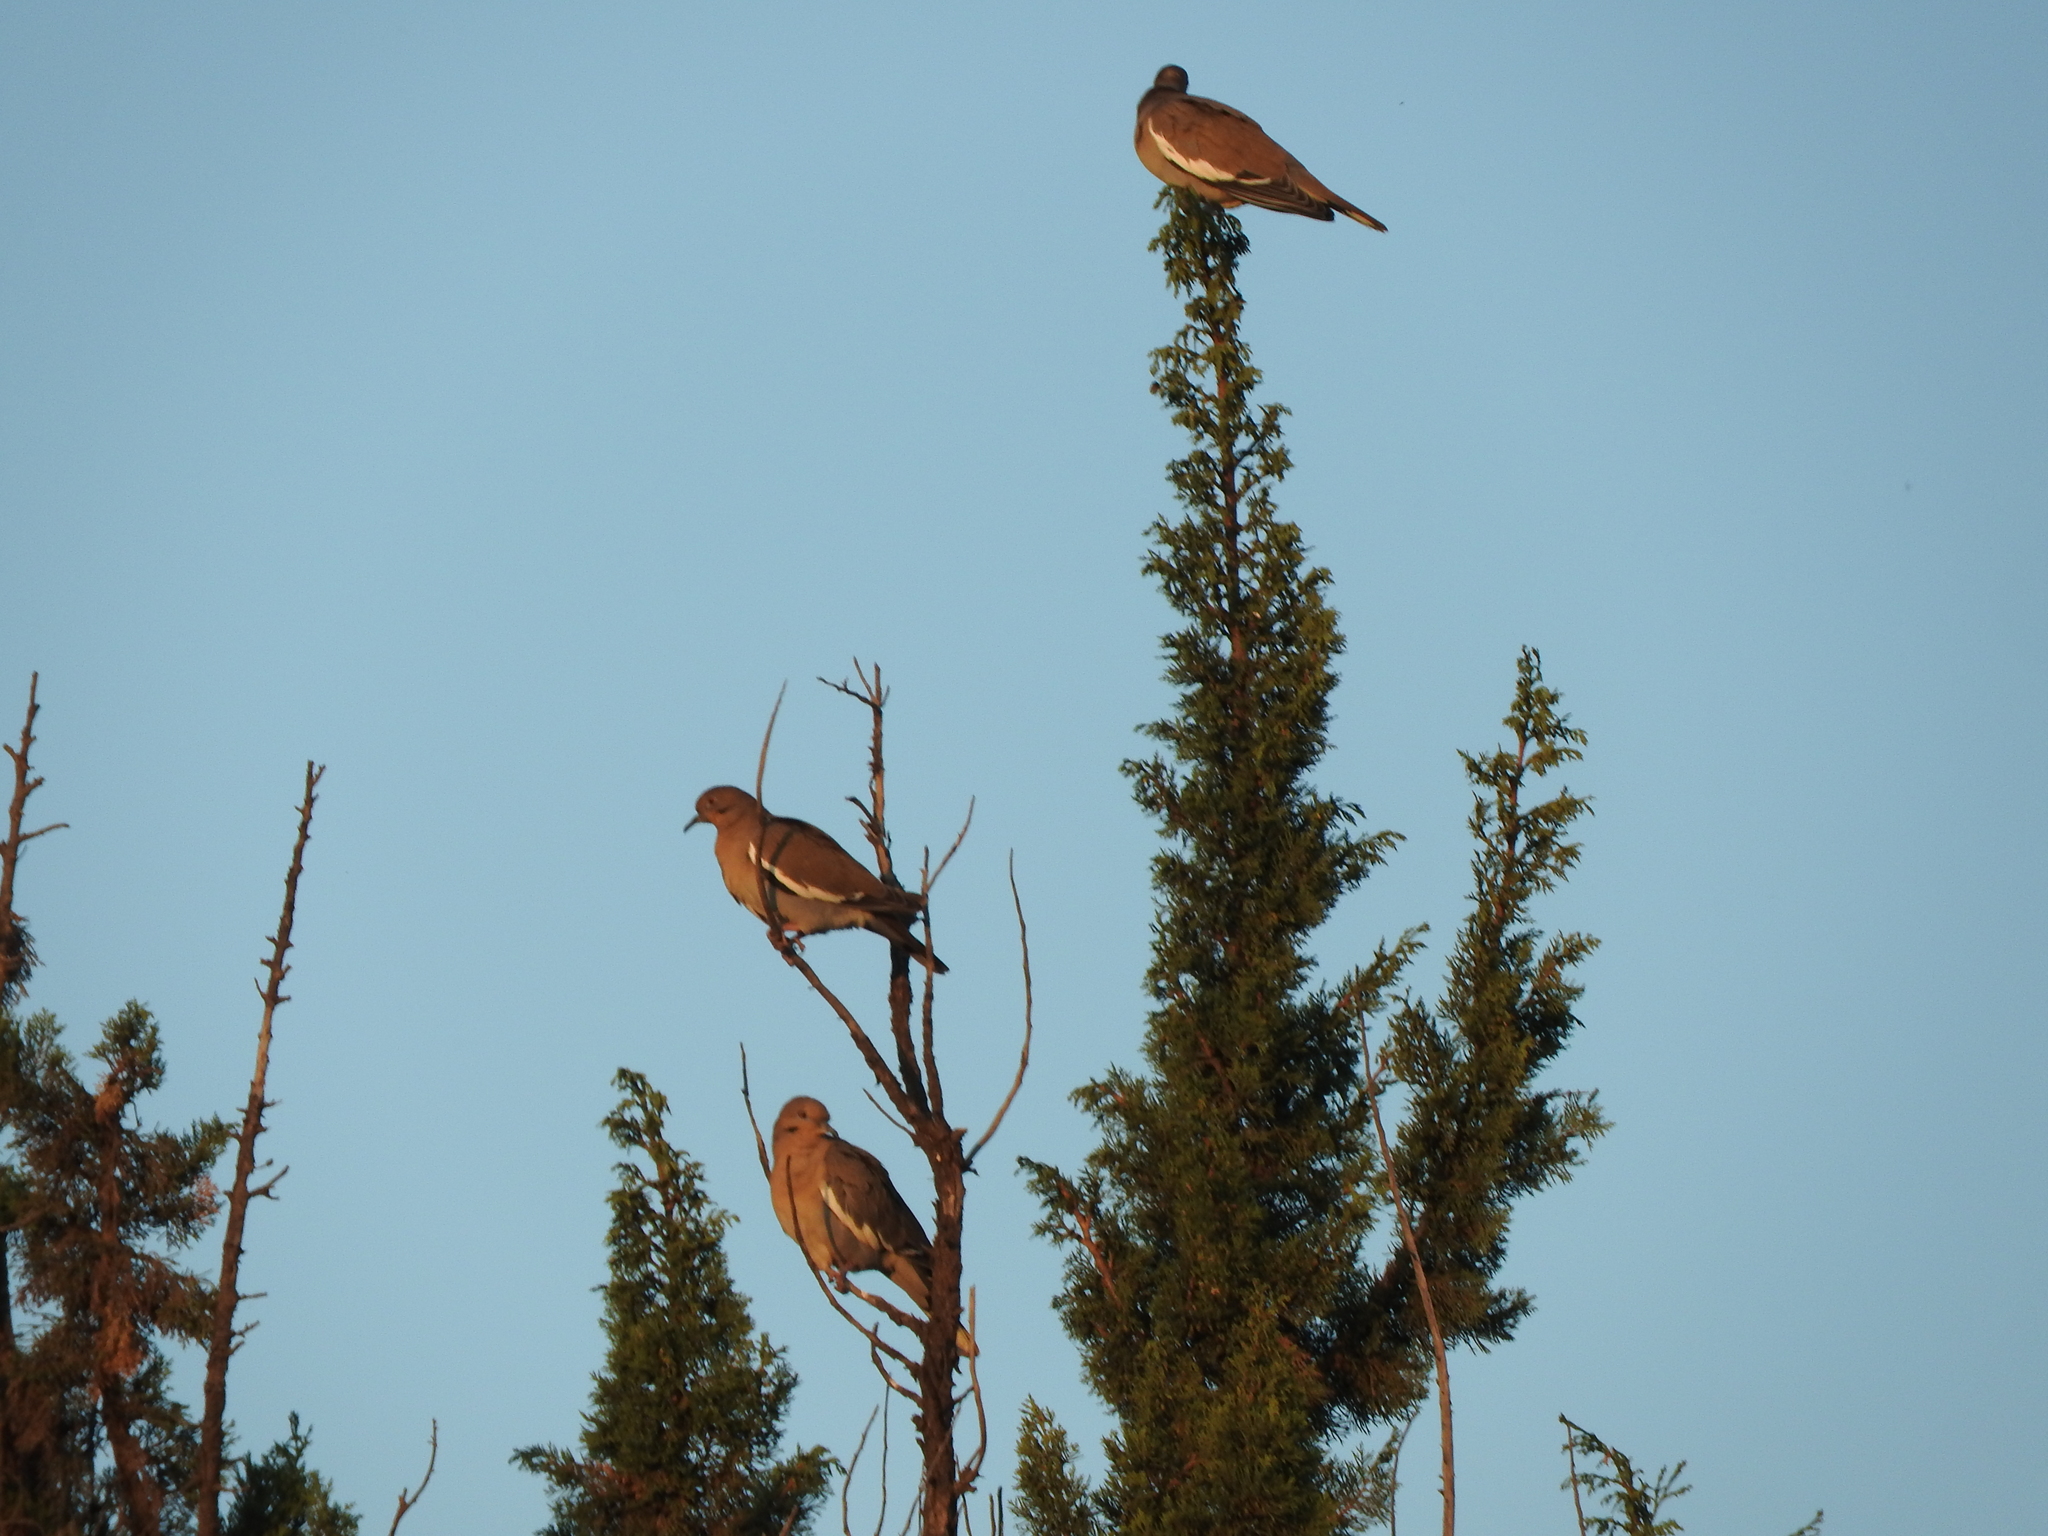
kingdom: Animalia
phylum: Chordata
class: Aves
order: Columbiformes
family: Columbidae
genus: Zenaida
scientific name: Zenaida asiatica
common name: White-winged dove
